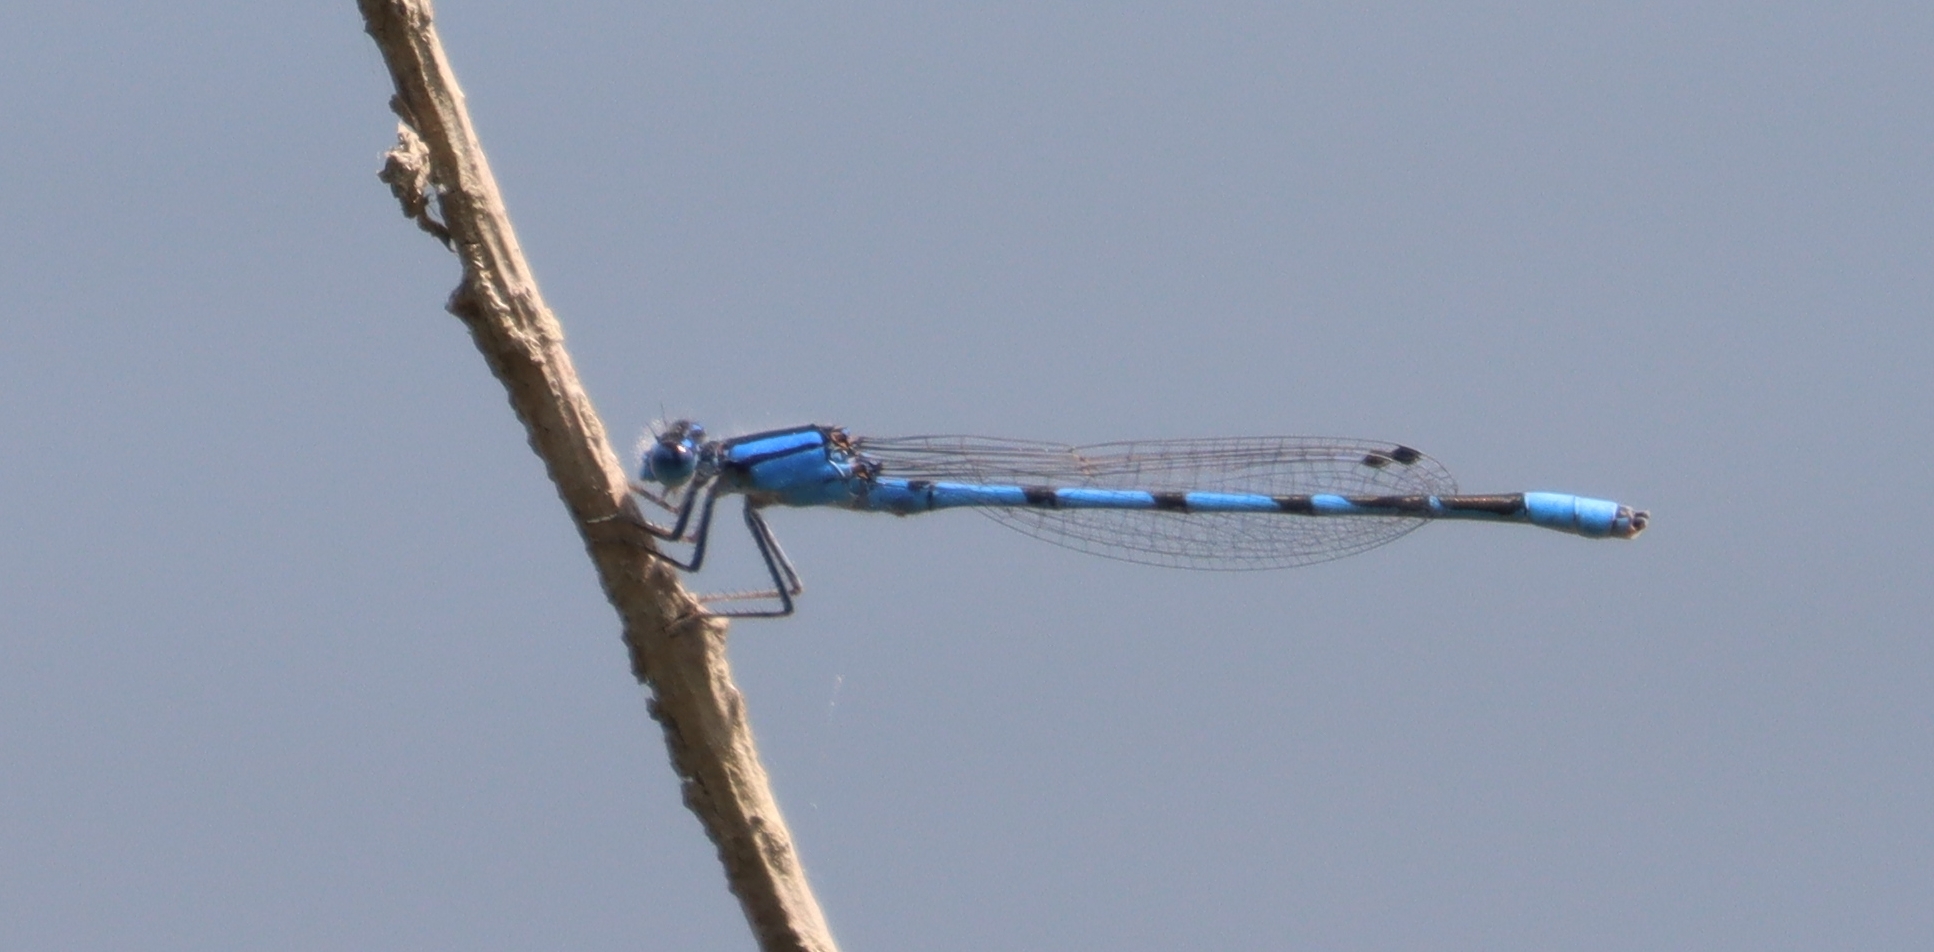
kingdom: Animalia
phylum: Arthropoda
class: Insecta
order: Odonata
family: Coenagrionidae
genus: Enallagma
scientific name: Enallagma civile
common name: Damselfly
